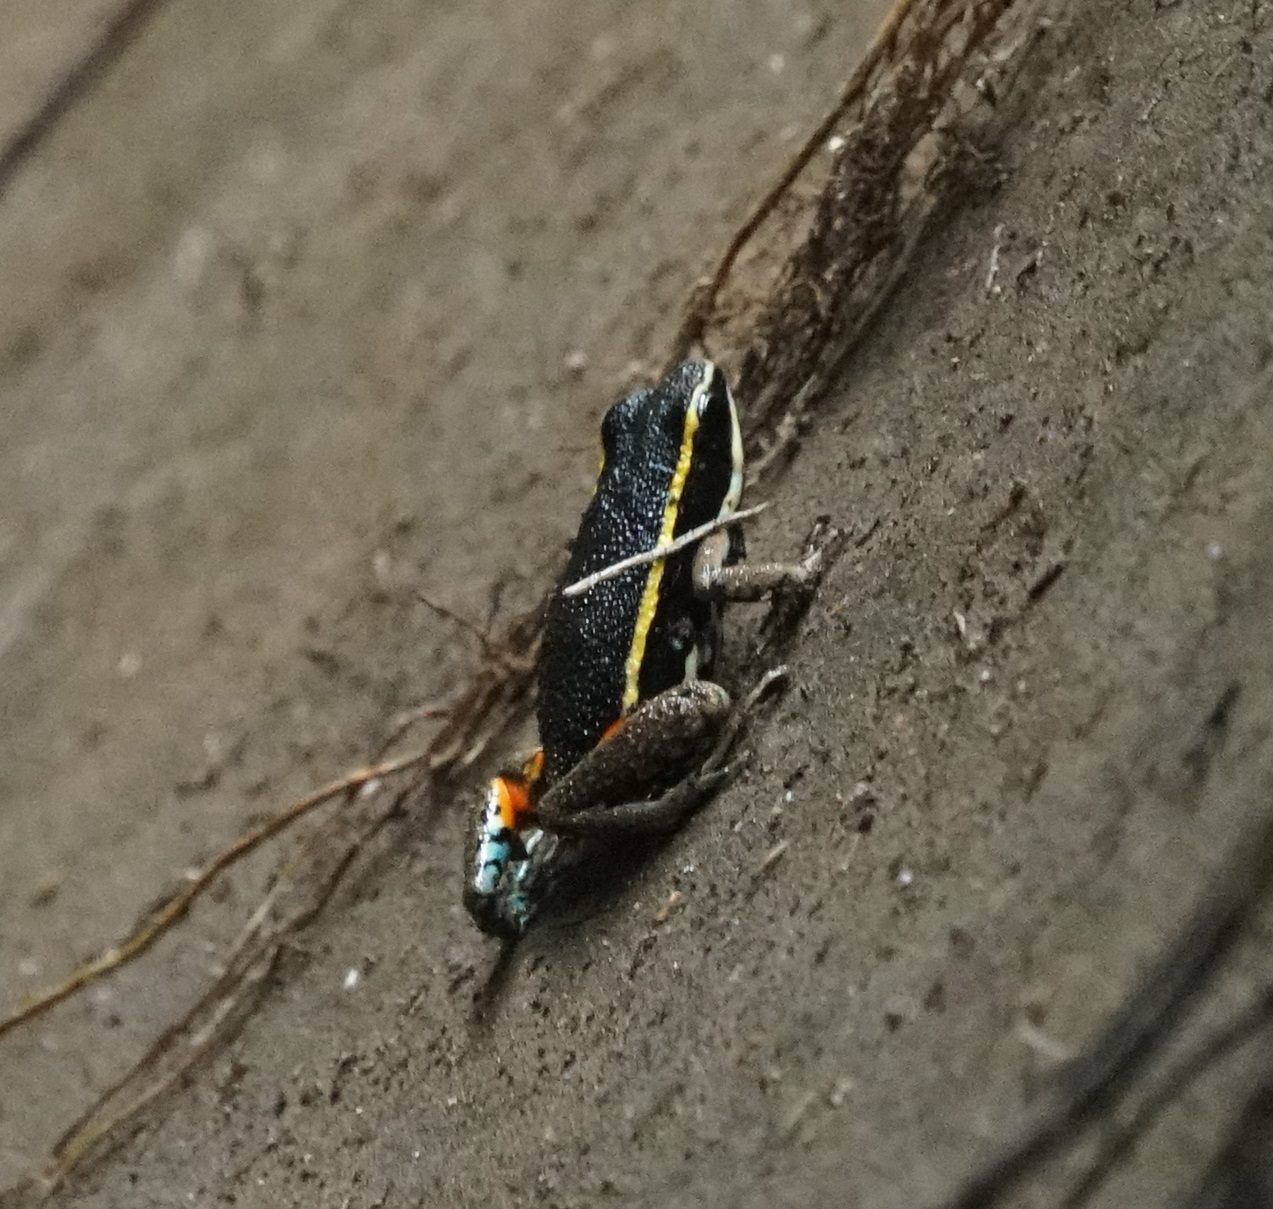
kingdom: Animalia
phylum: Chordata
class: Amphibia
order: Anura
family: Dendrobatidae
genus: Ameerega
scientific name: Ameerega picta
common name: Spot-legged poison frog
